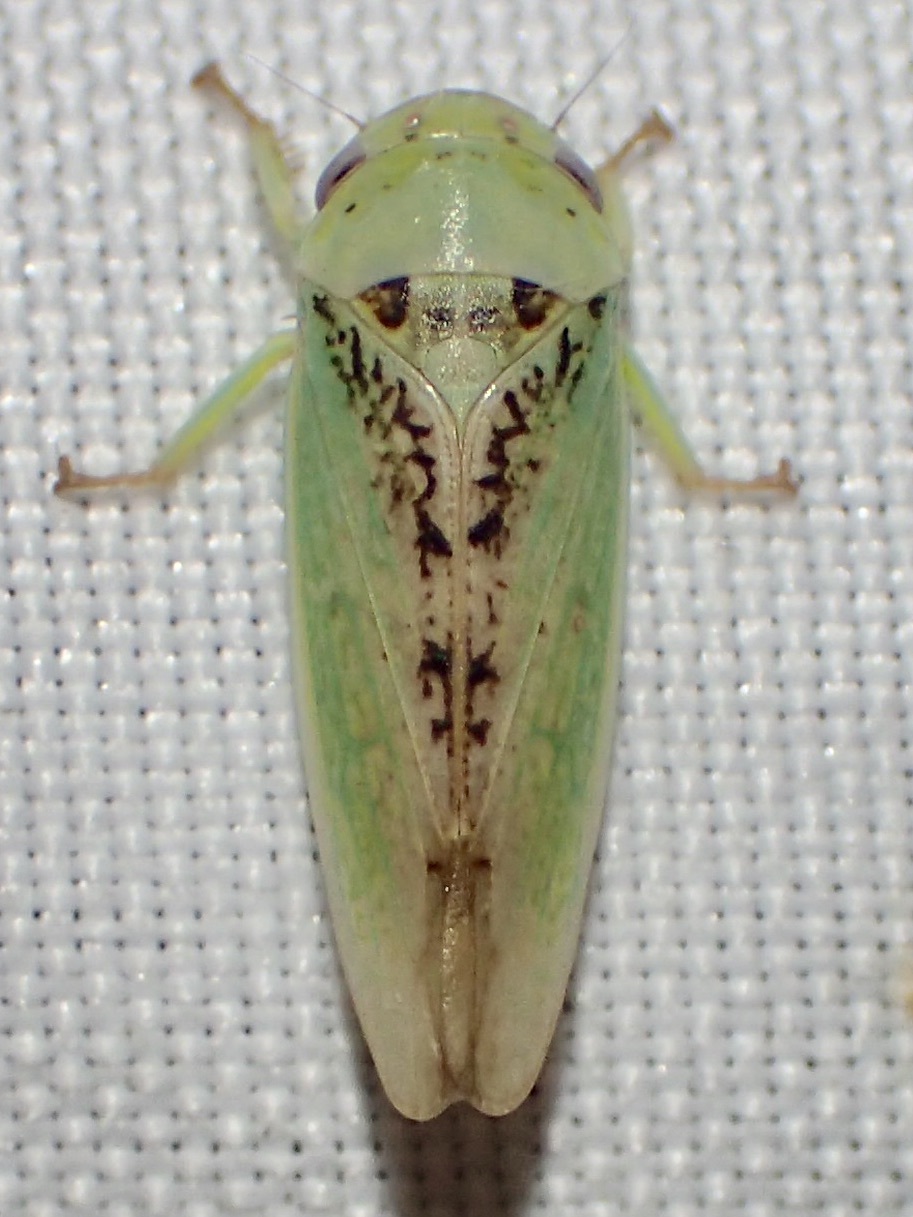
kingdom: Animalia
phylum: Arthropoda
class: Insecta
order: Hemiptera
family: Cicadellidae
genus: Hamana
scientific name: Hamana dictitoria
